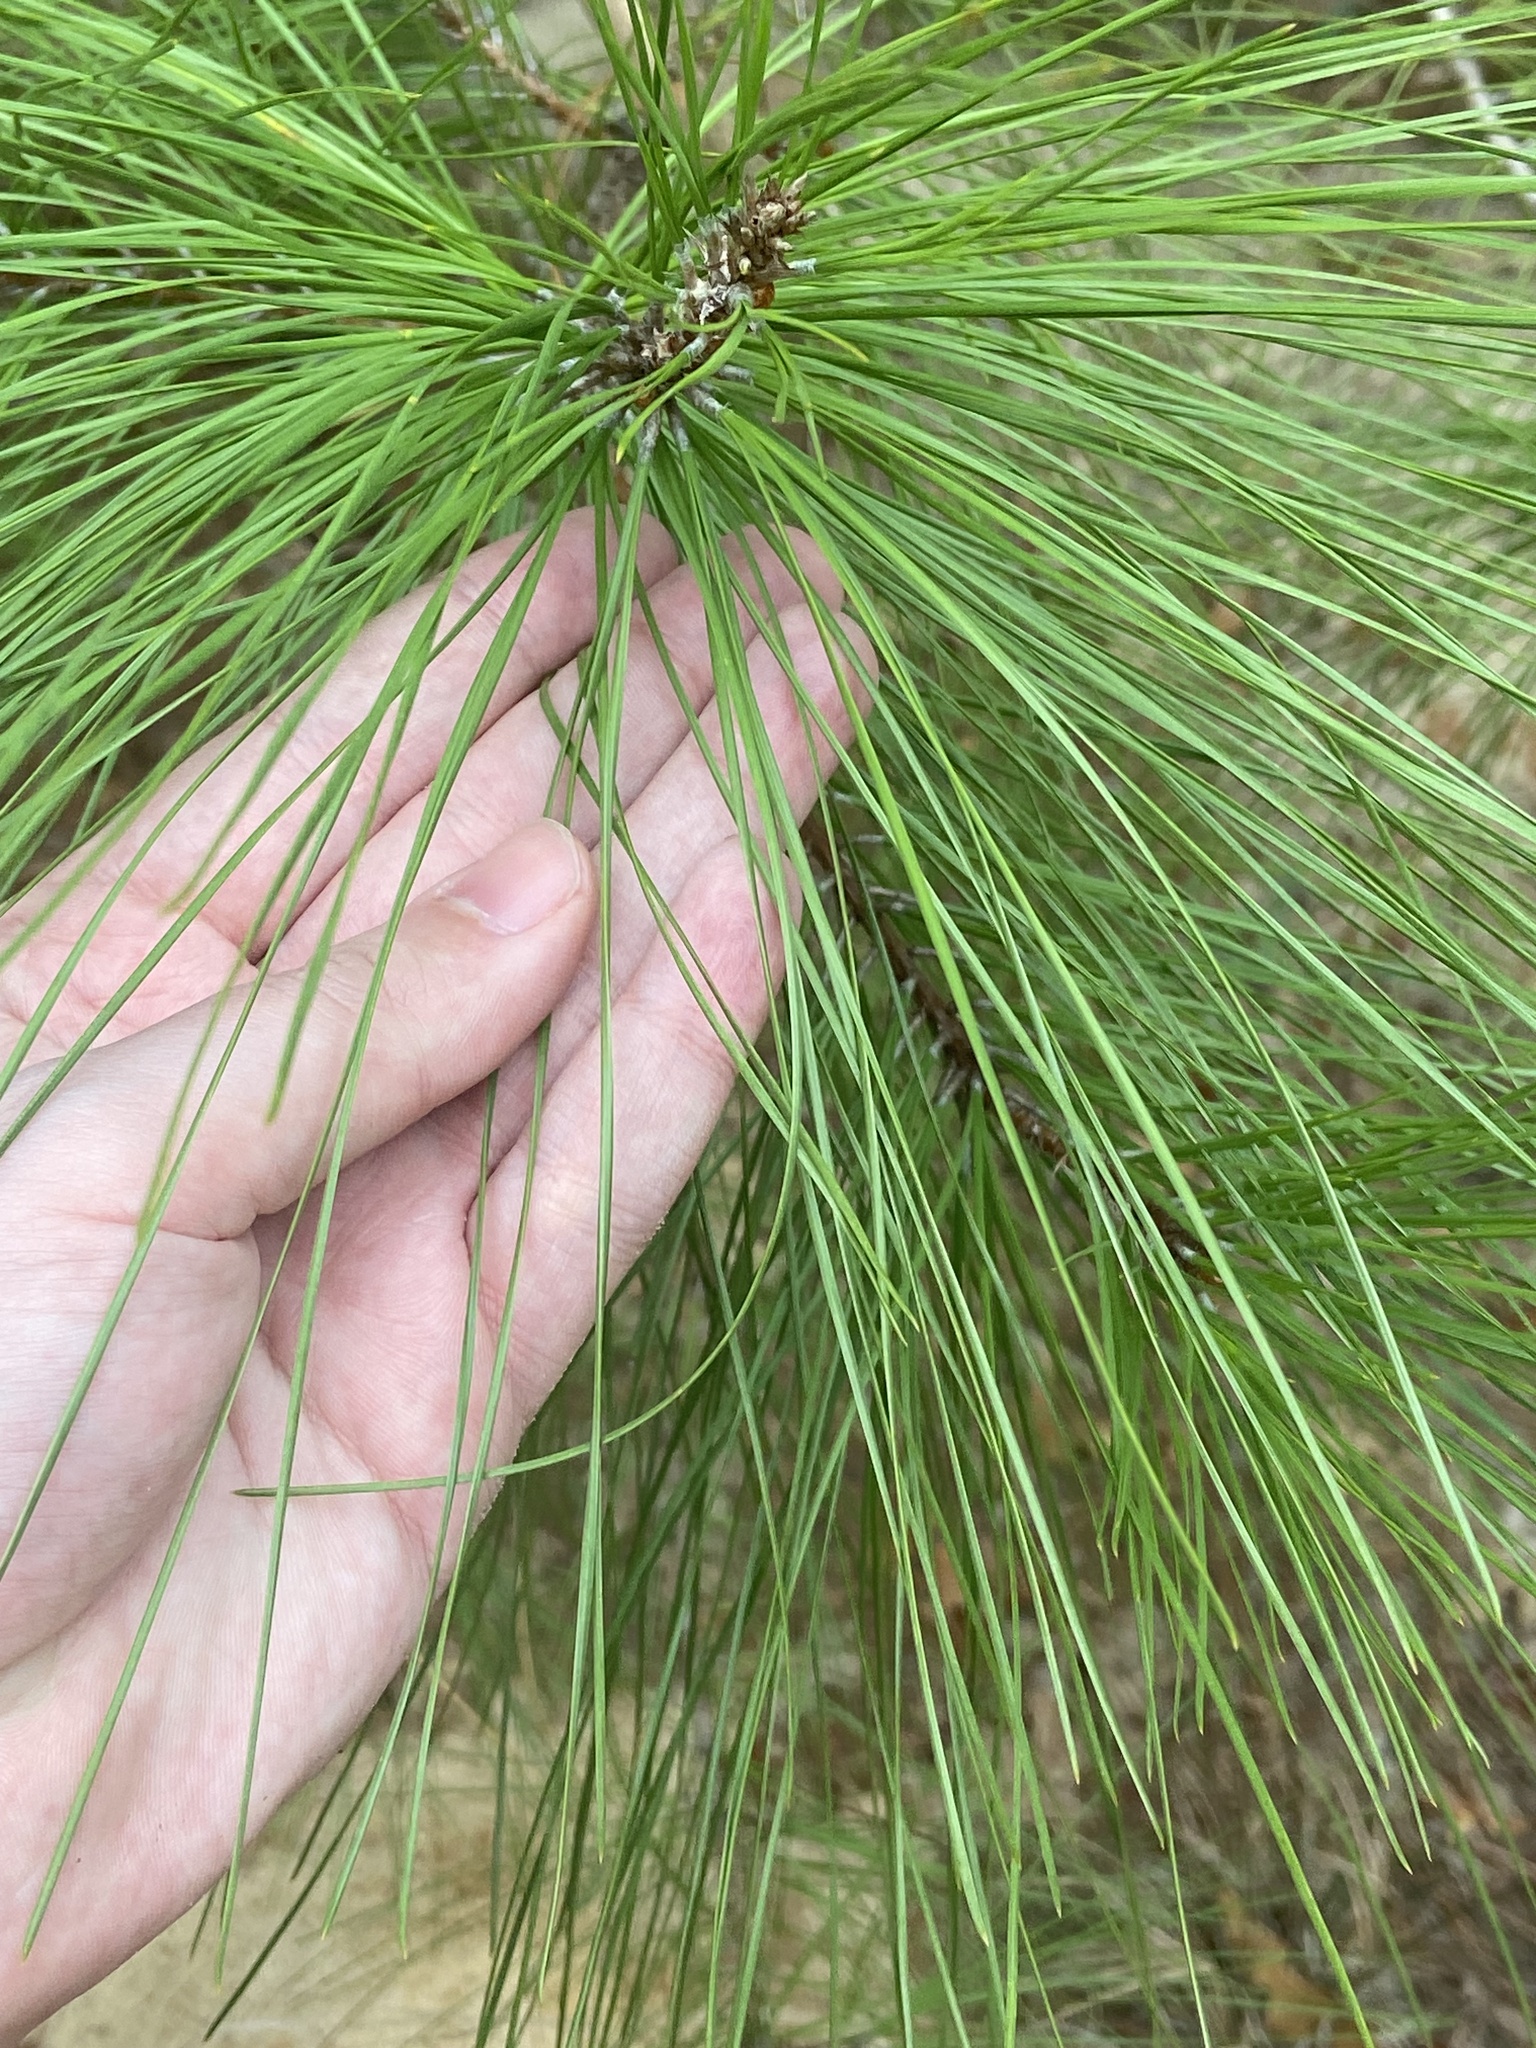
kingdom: Plantae
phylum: Tracheophyta
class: Pinopsida
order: Pinales
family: Pinaceae
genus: Pinus
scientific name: Pinus taeda
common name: Loblolly pine
